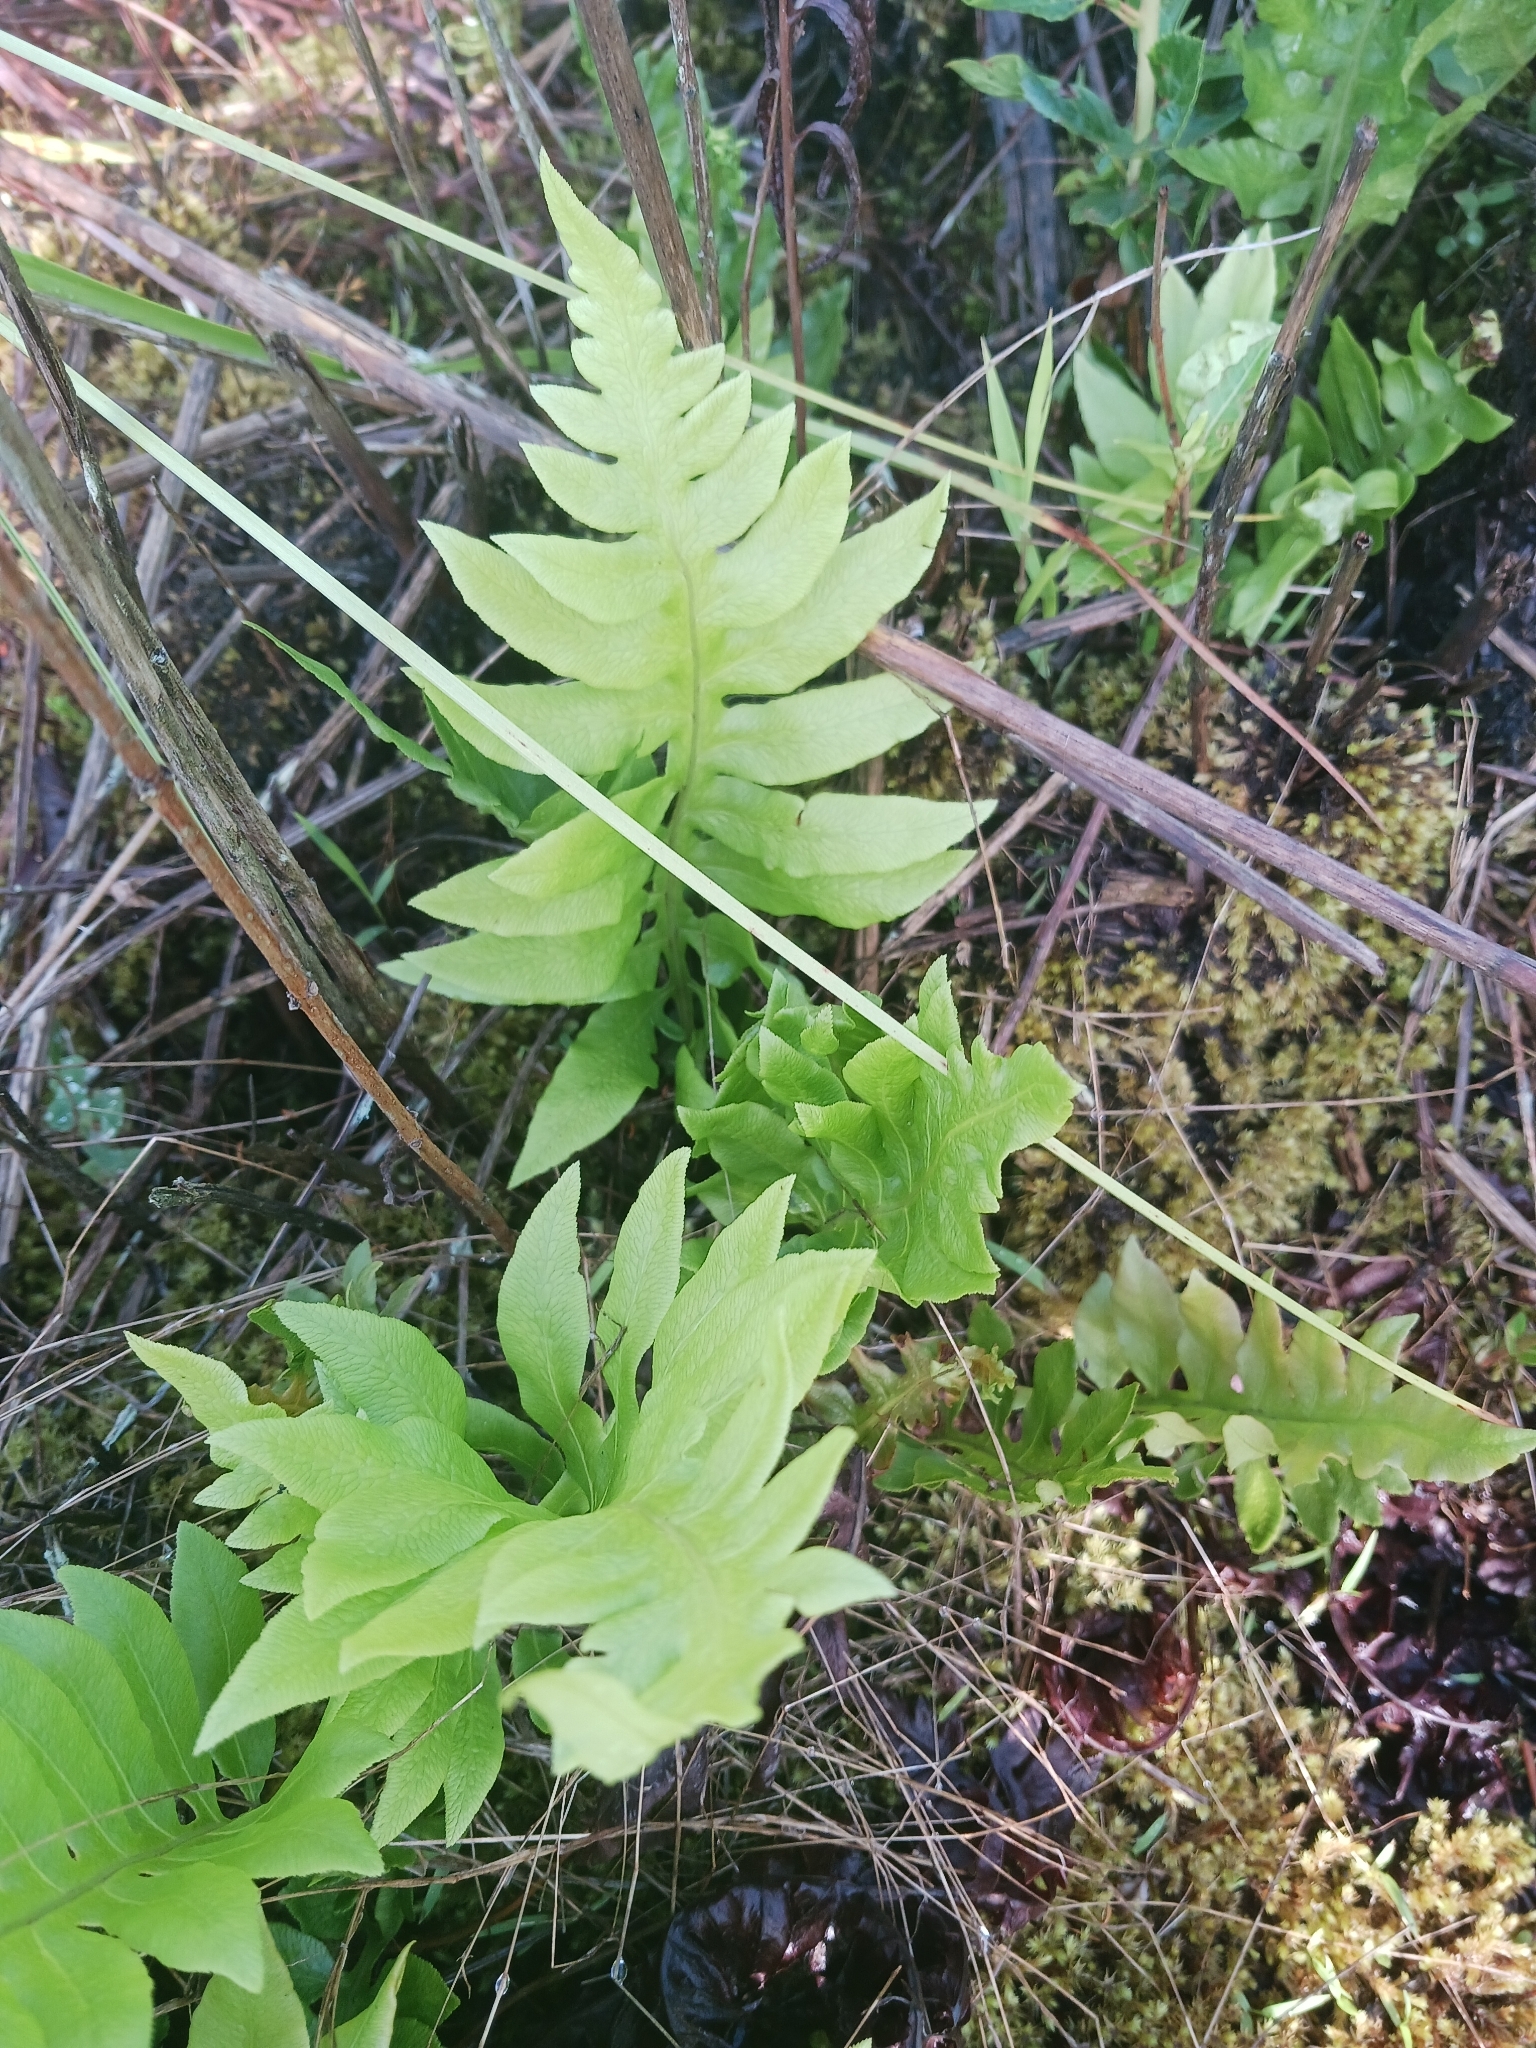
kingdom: Plantae
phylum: Tracheophyta
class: Polypodiopsida
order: Polypodiales
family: Blechnaceae
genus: Lorinseria
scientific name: Lorinseria areolata
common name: Dwarf chain fern
